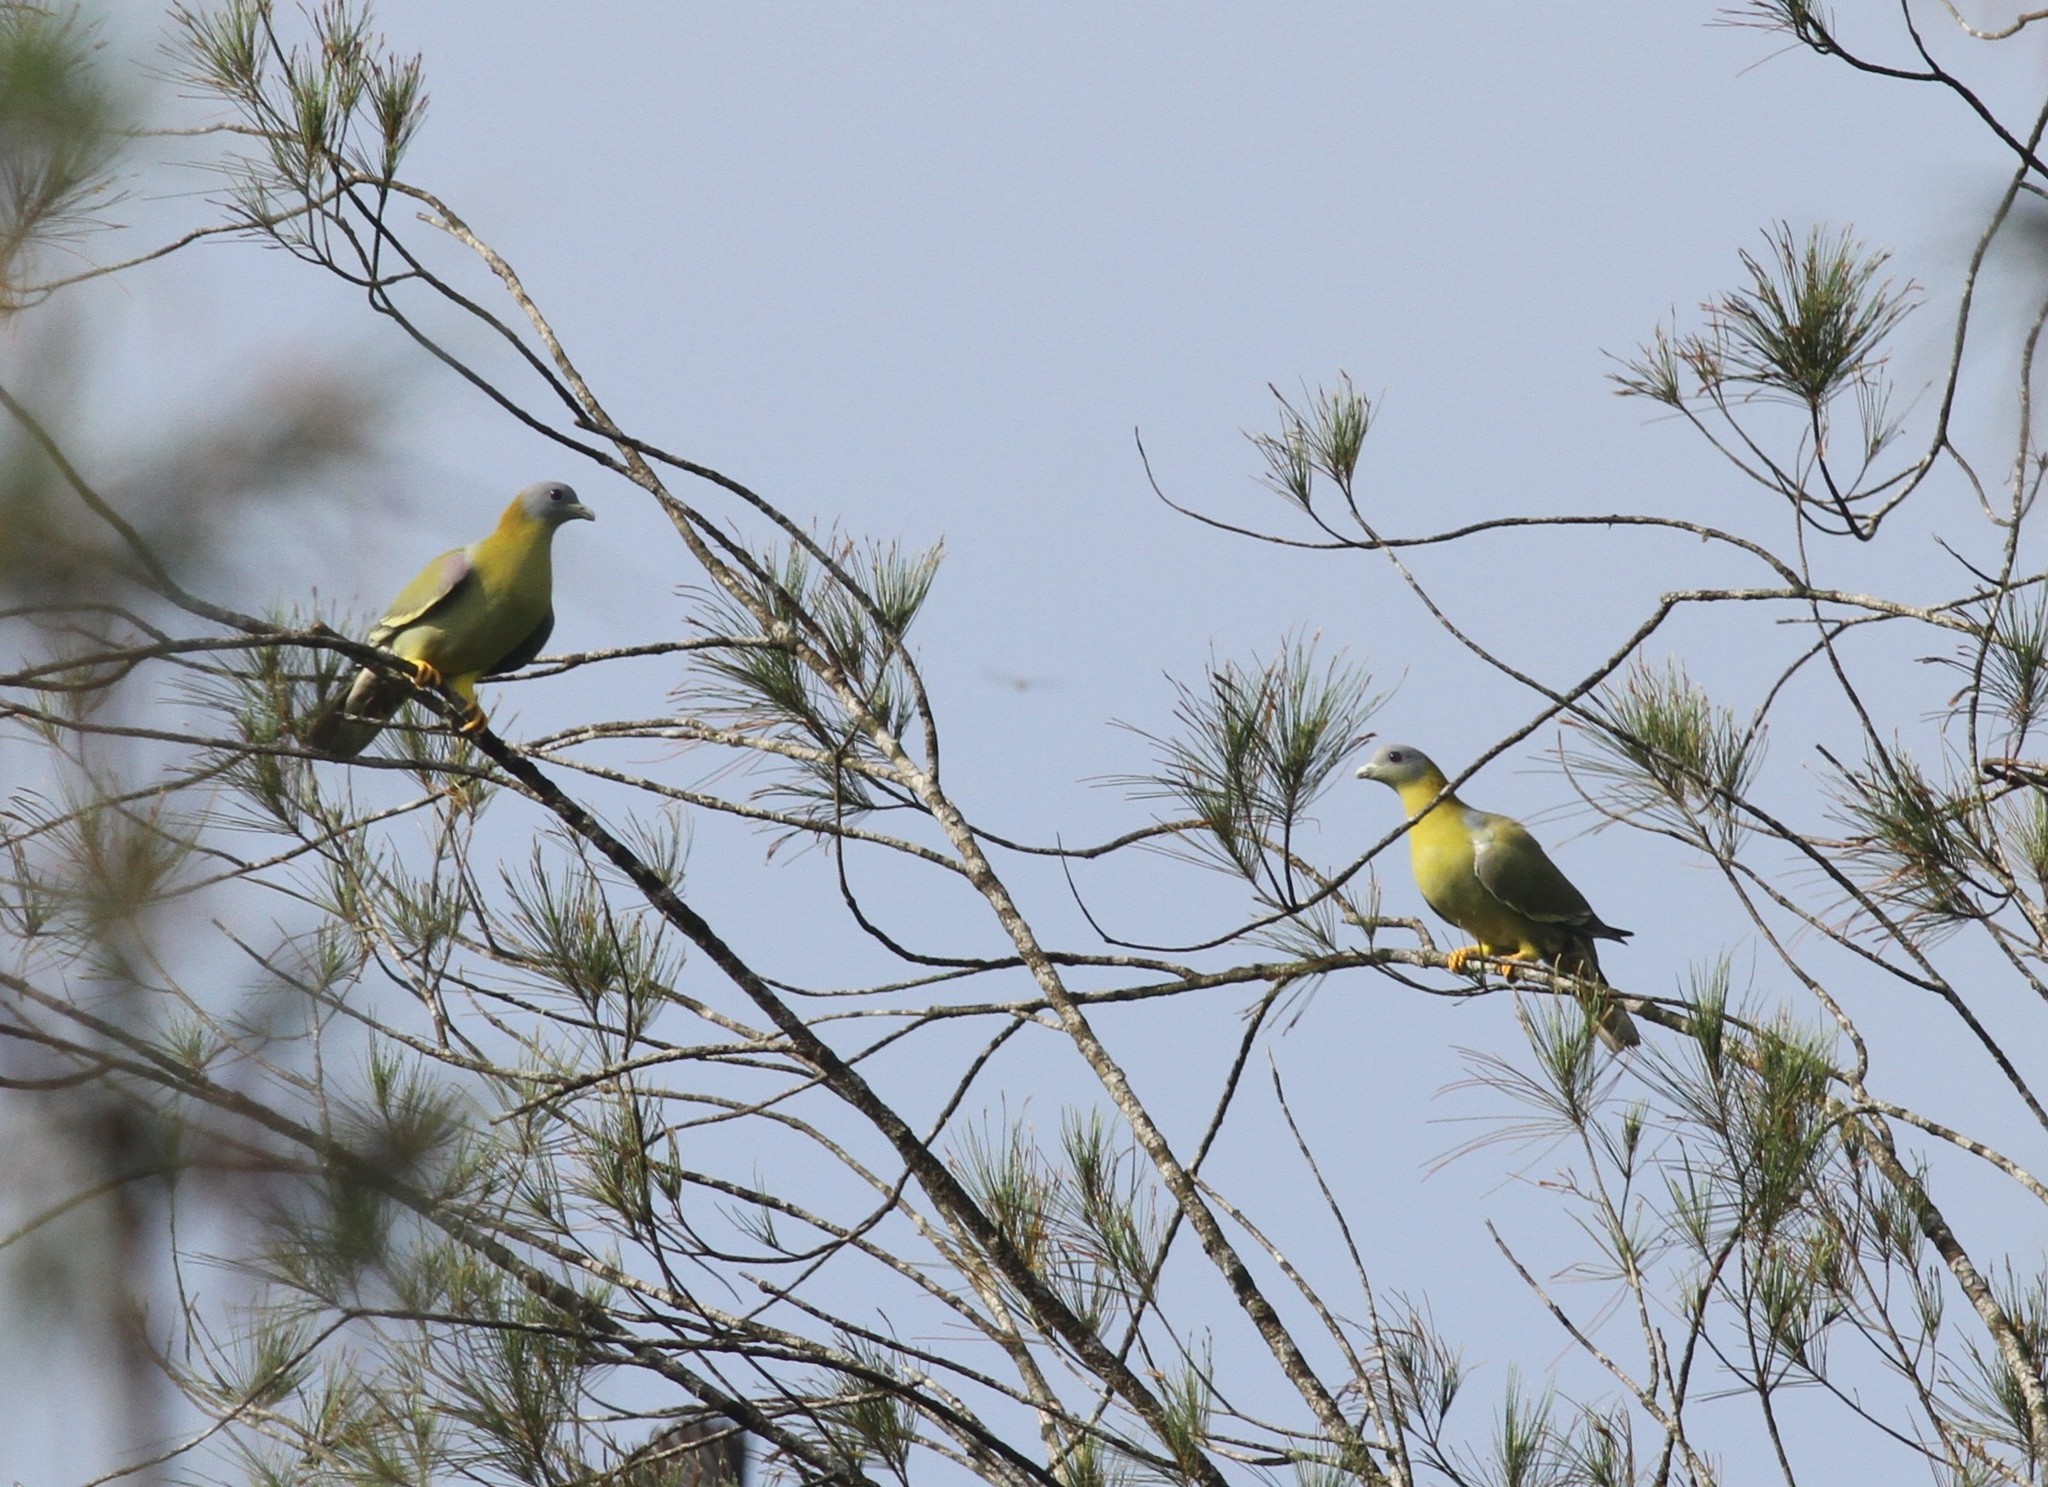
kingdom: Animalia
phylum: Chordata
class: Aves
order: Columbiformes
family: Columbidae
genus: Treron
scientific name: Treron phoenicopterus
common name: Yellow-footed green pigeon
